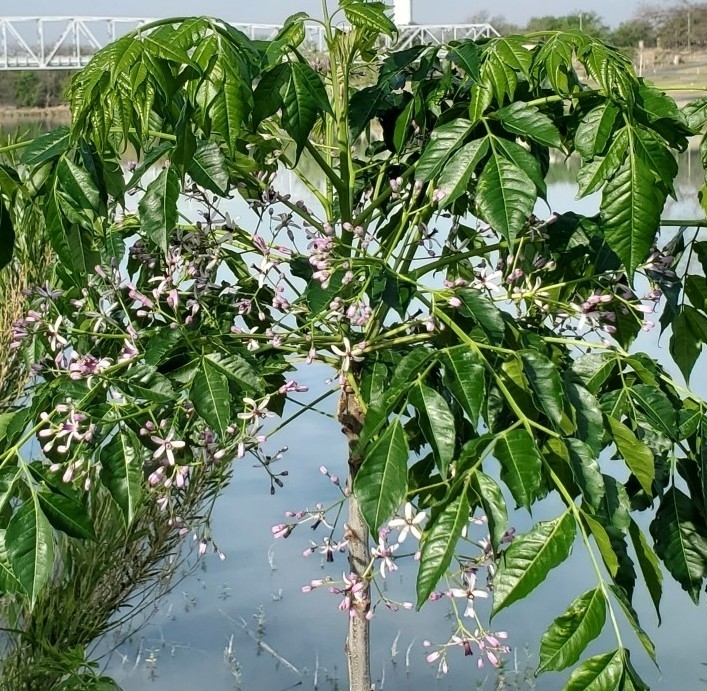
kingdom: Plantae
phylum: Tracheophyta
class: Magnoliopsida
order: Sapindales
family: Meliaceae
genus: Melia
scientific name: Melia azedarach
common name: Chinaberrytree
